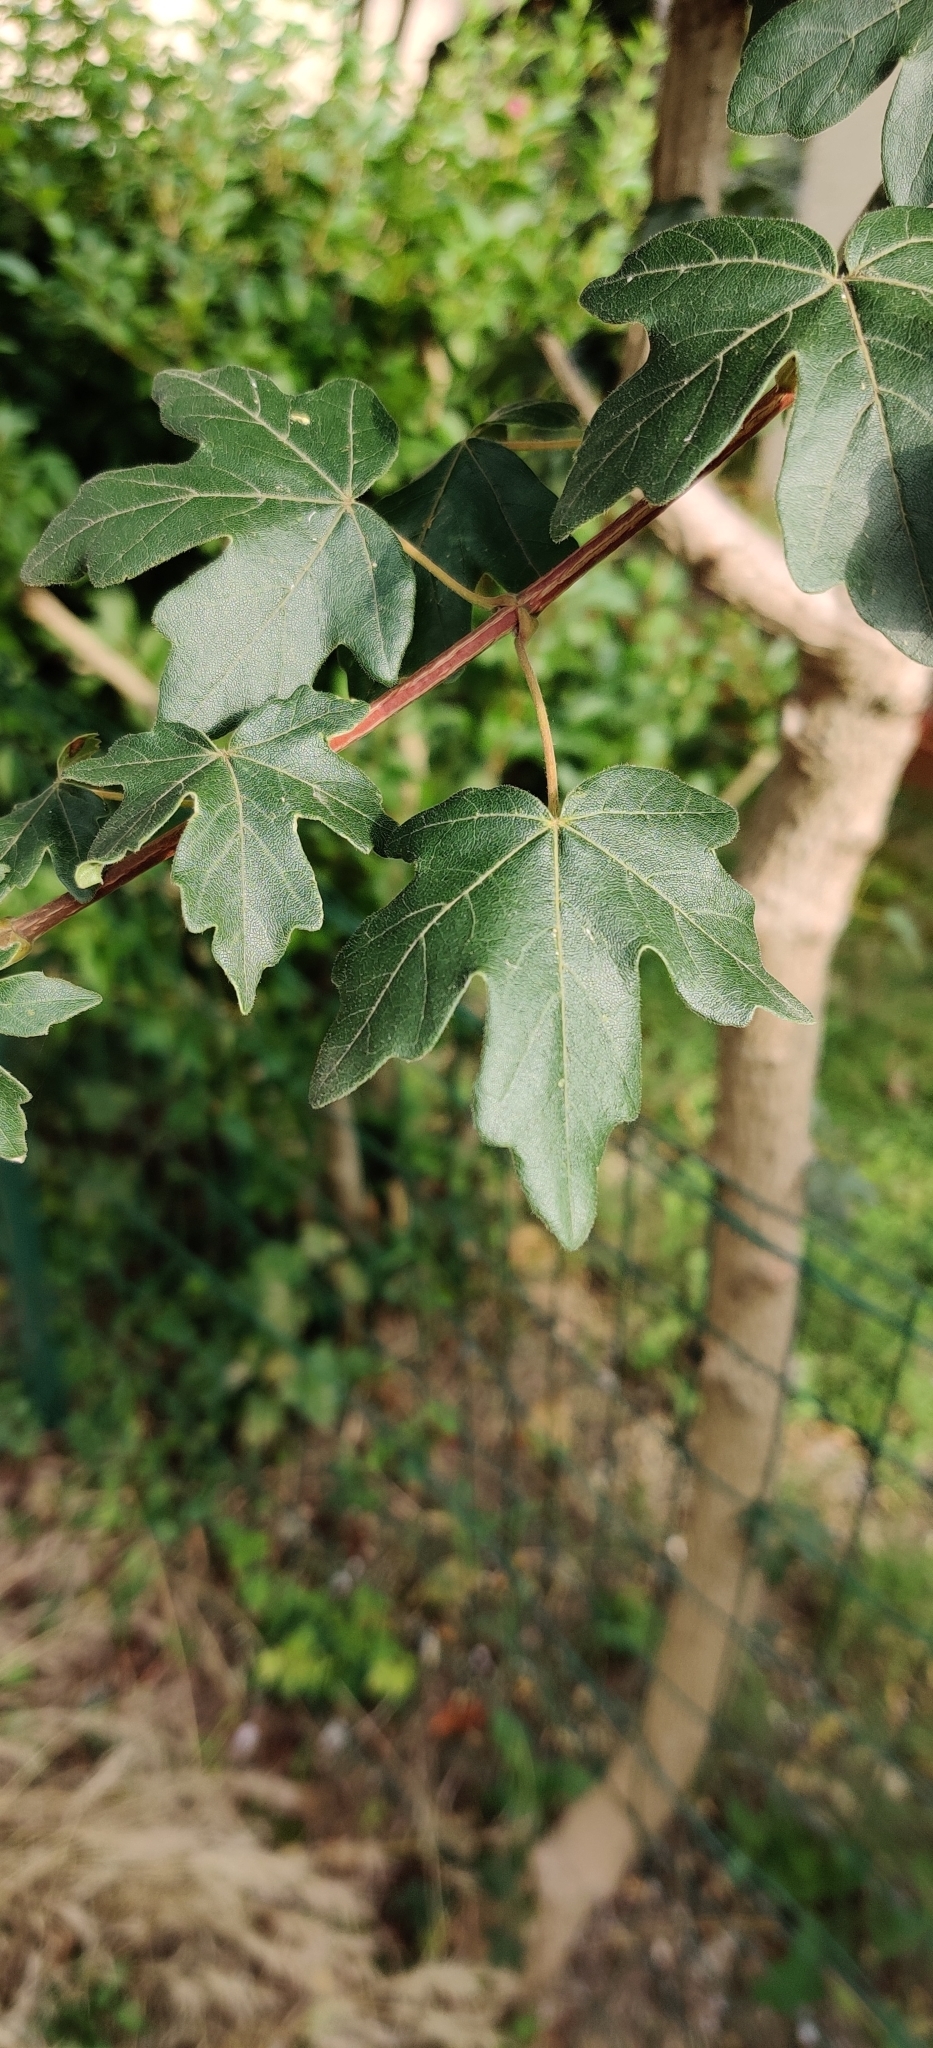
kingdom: Plantae
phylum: Tracheophyta
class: Magnoliopsida
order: Sapindales
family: Sapindaceae
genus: Acer
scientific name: Acer campestre
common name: Field maple
